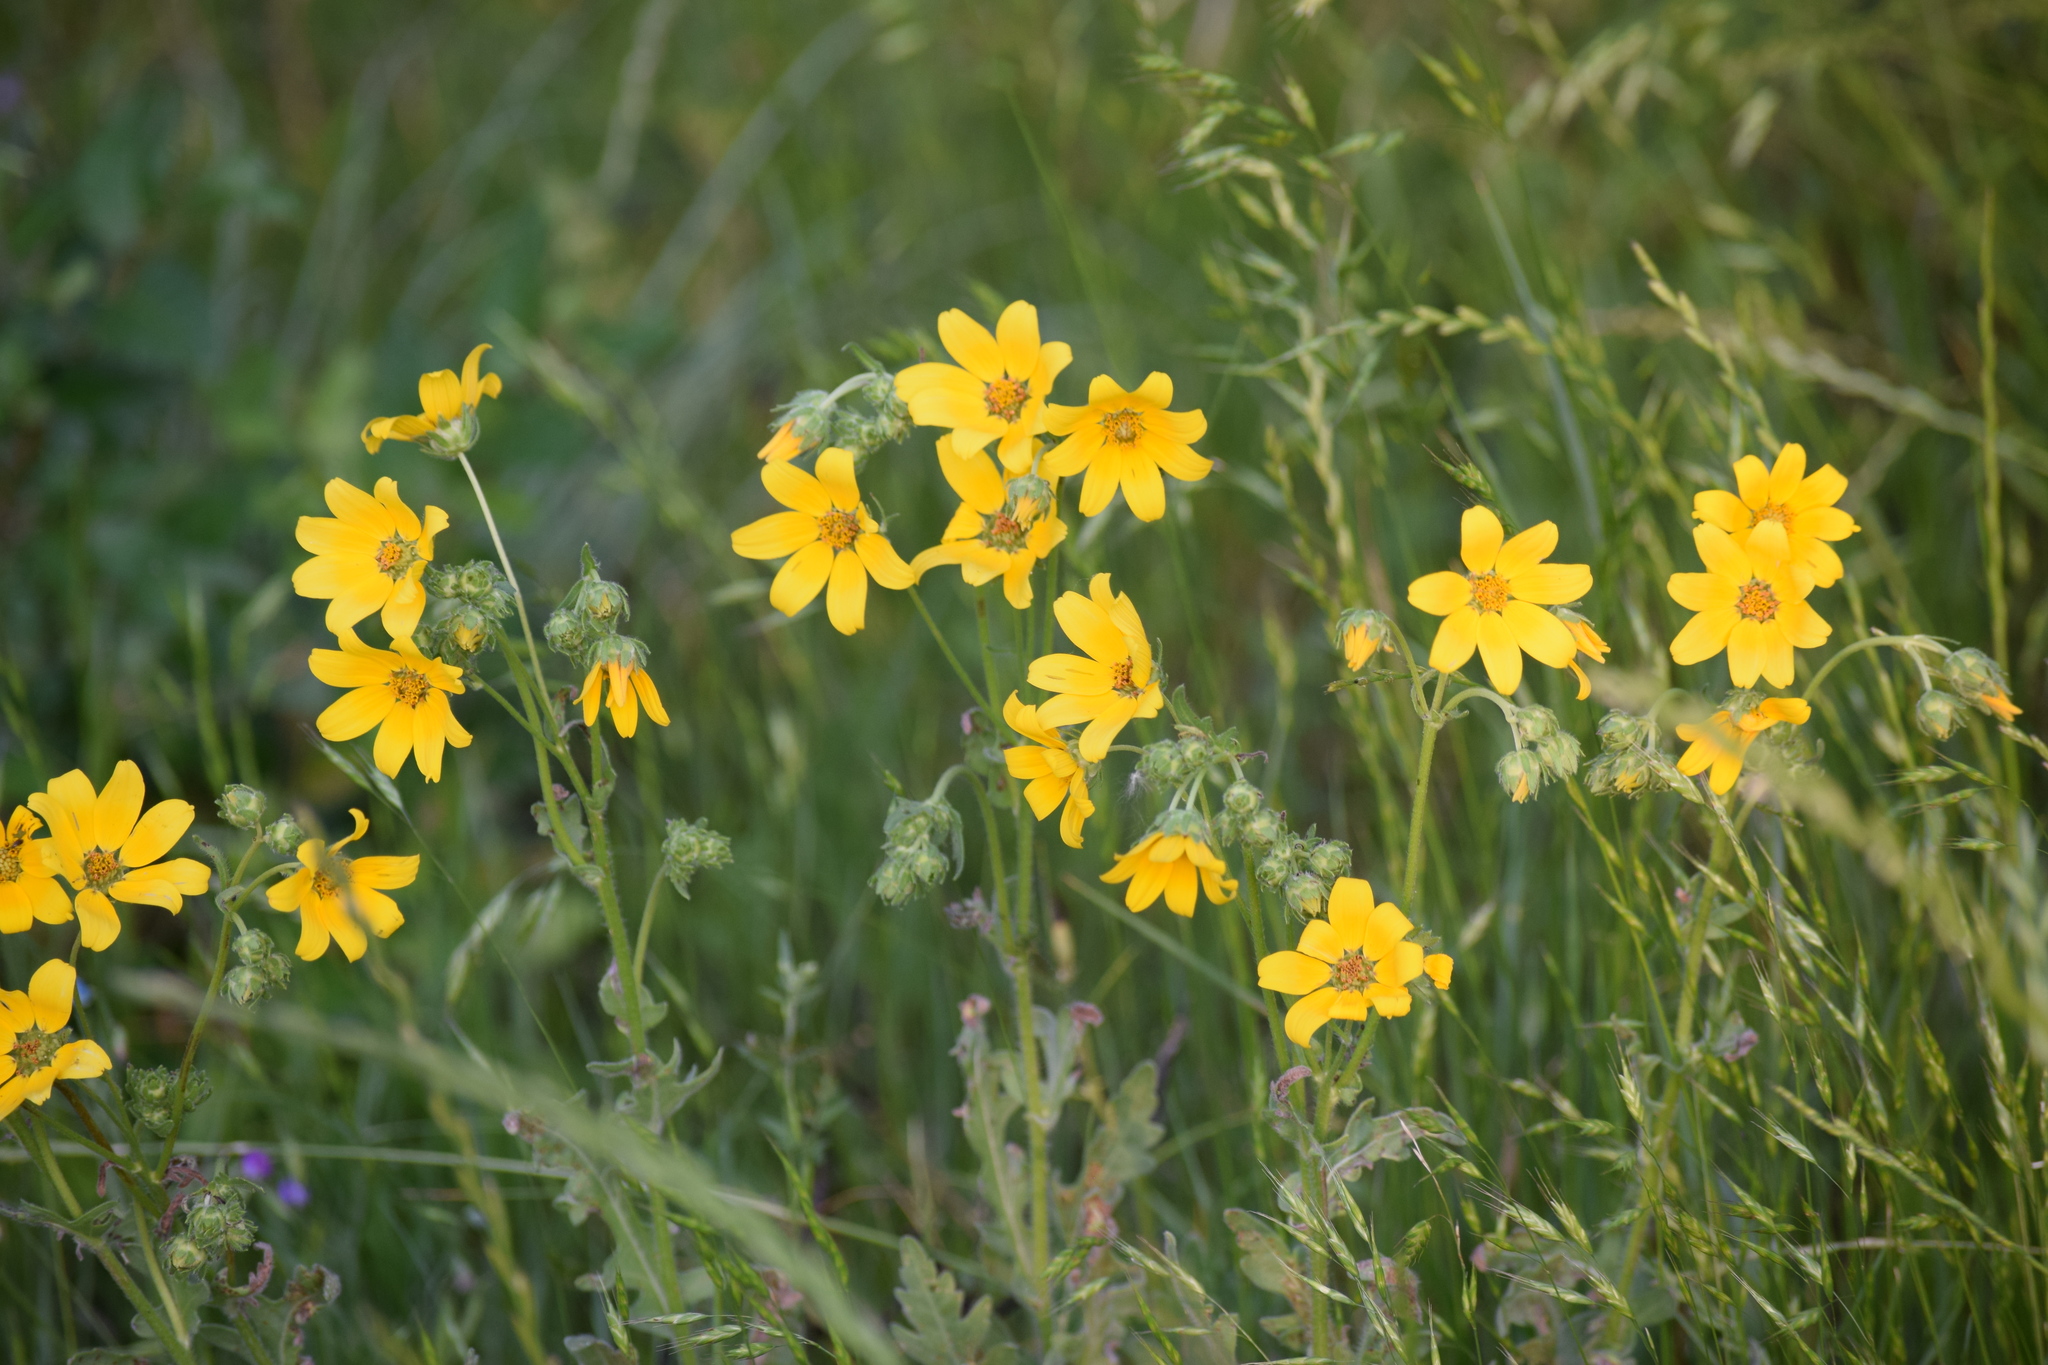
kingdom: Plantae
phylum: Tracheophyta
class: Magnoliopsida
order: Asterales
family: Asteraceae
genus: Engelmannia
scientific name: Engelmannia peristenia
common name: Engelmann's daisy
